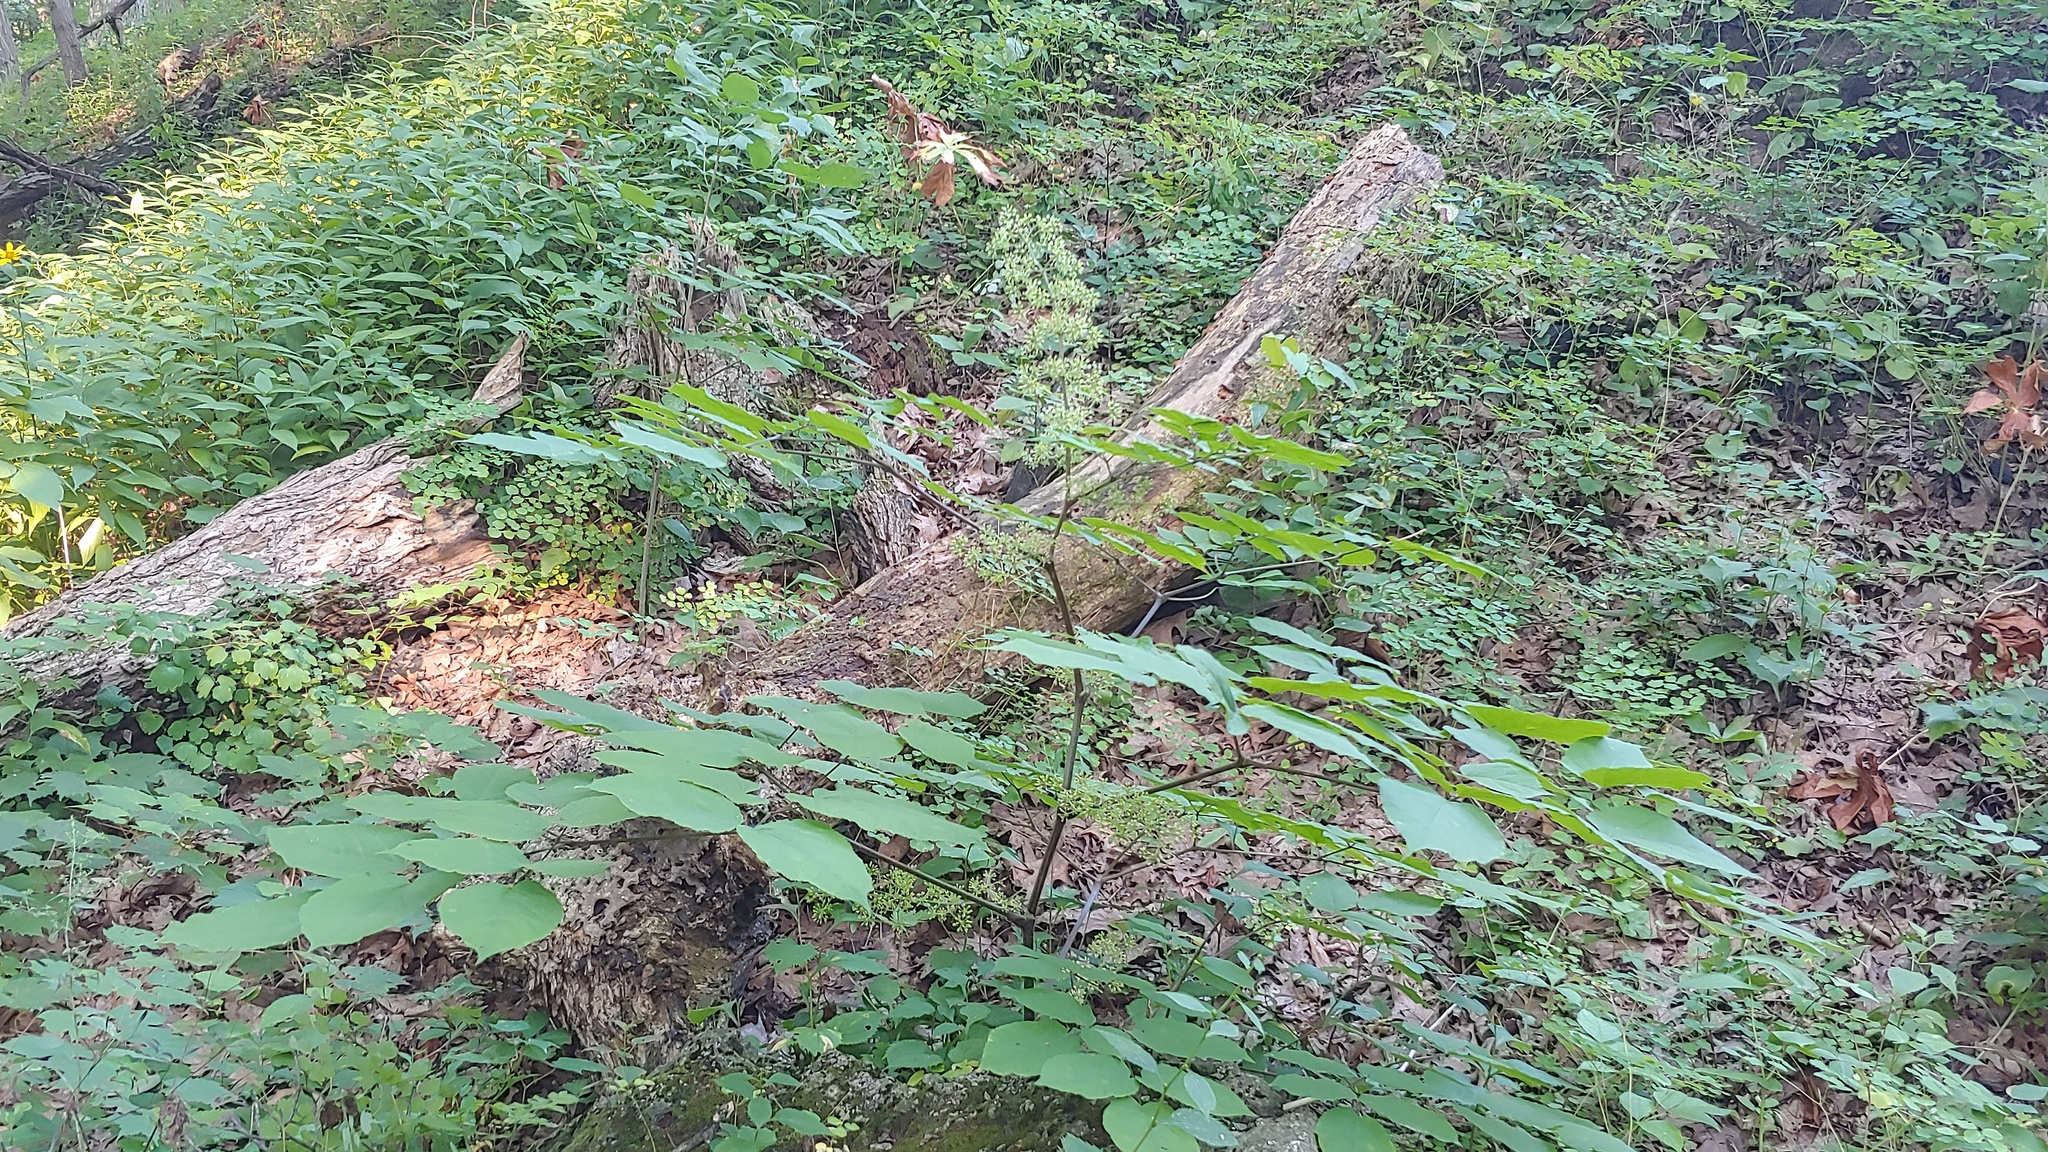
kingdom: Plantae
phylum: Tracheophyta
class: Magnoliopsida
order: Apiales
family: Araliaceae
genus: Aralia
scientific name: Aralia racemosa
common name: American-spikenard
